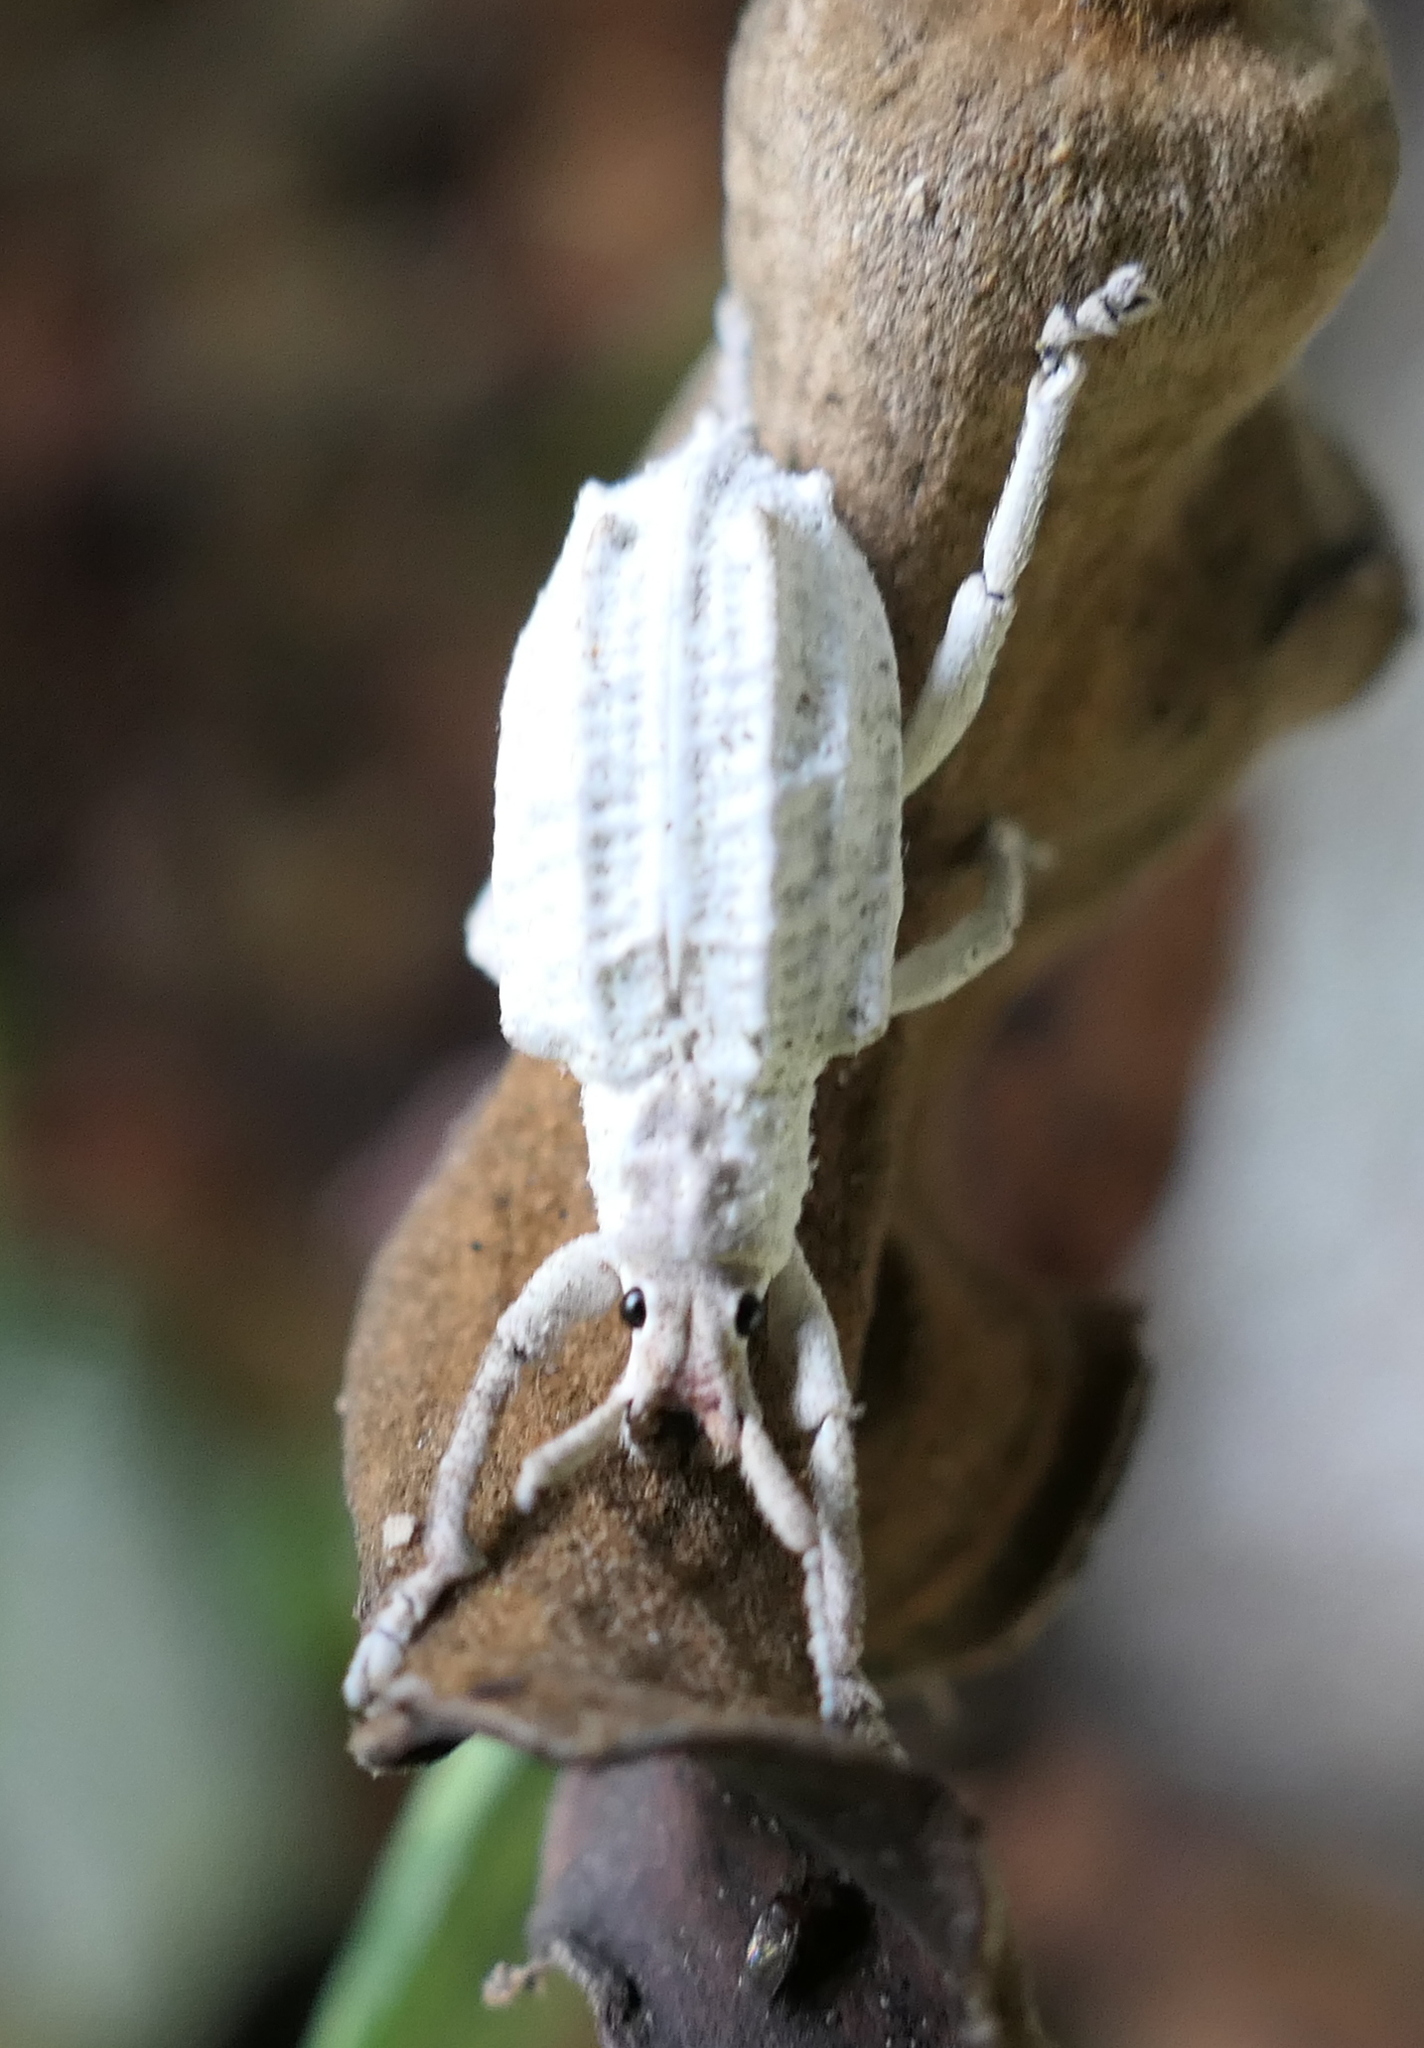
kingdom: Animalia
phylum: Arthropoda
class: Insecta
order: Coleoptera
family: Curculionidae
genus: Compsus
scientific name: Compsus niveus
